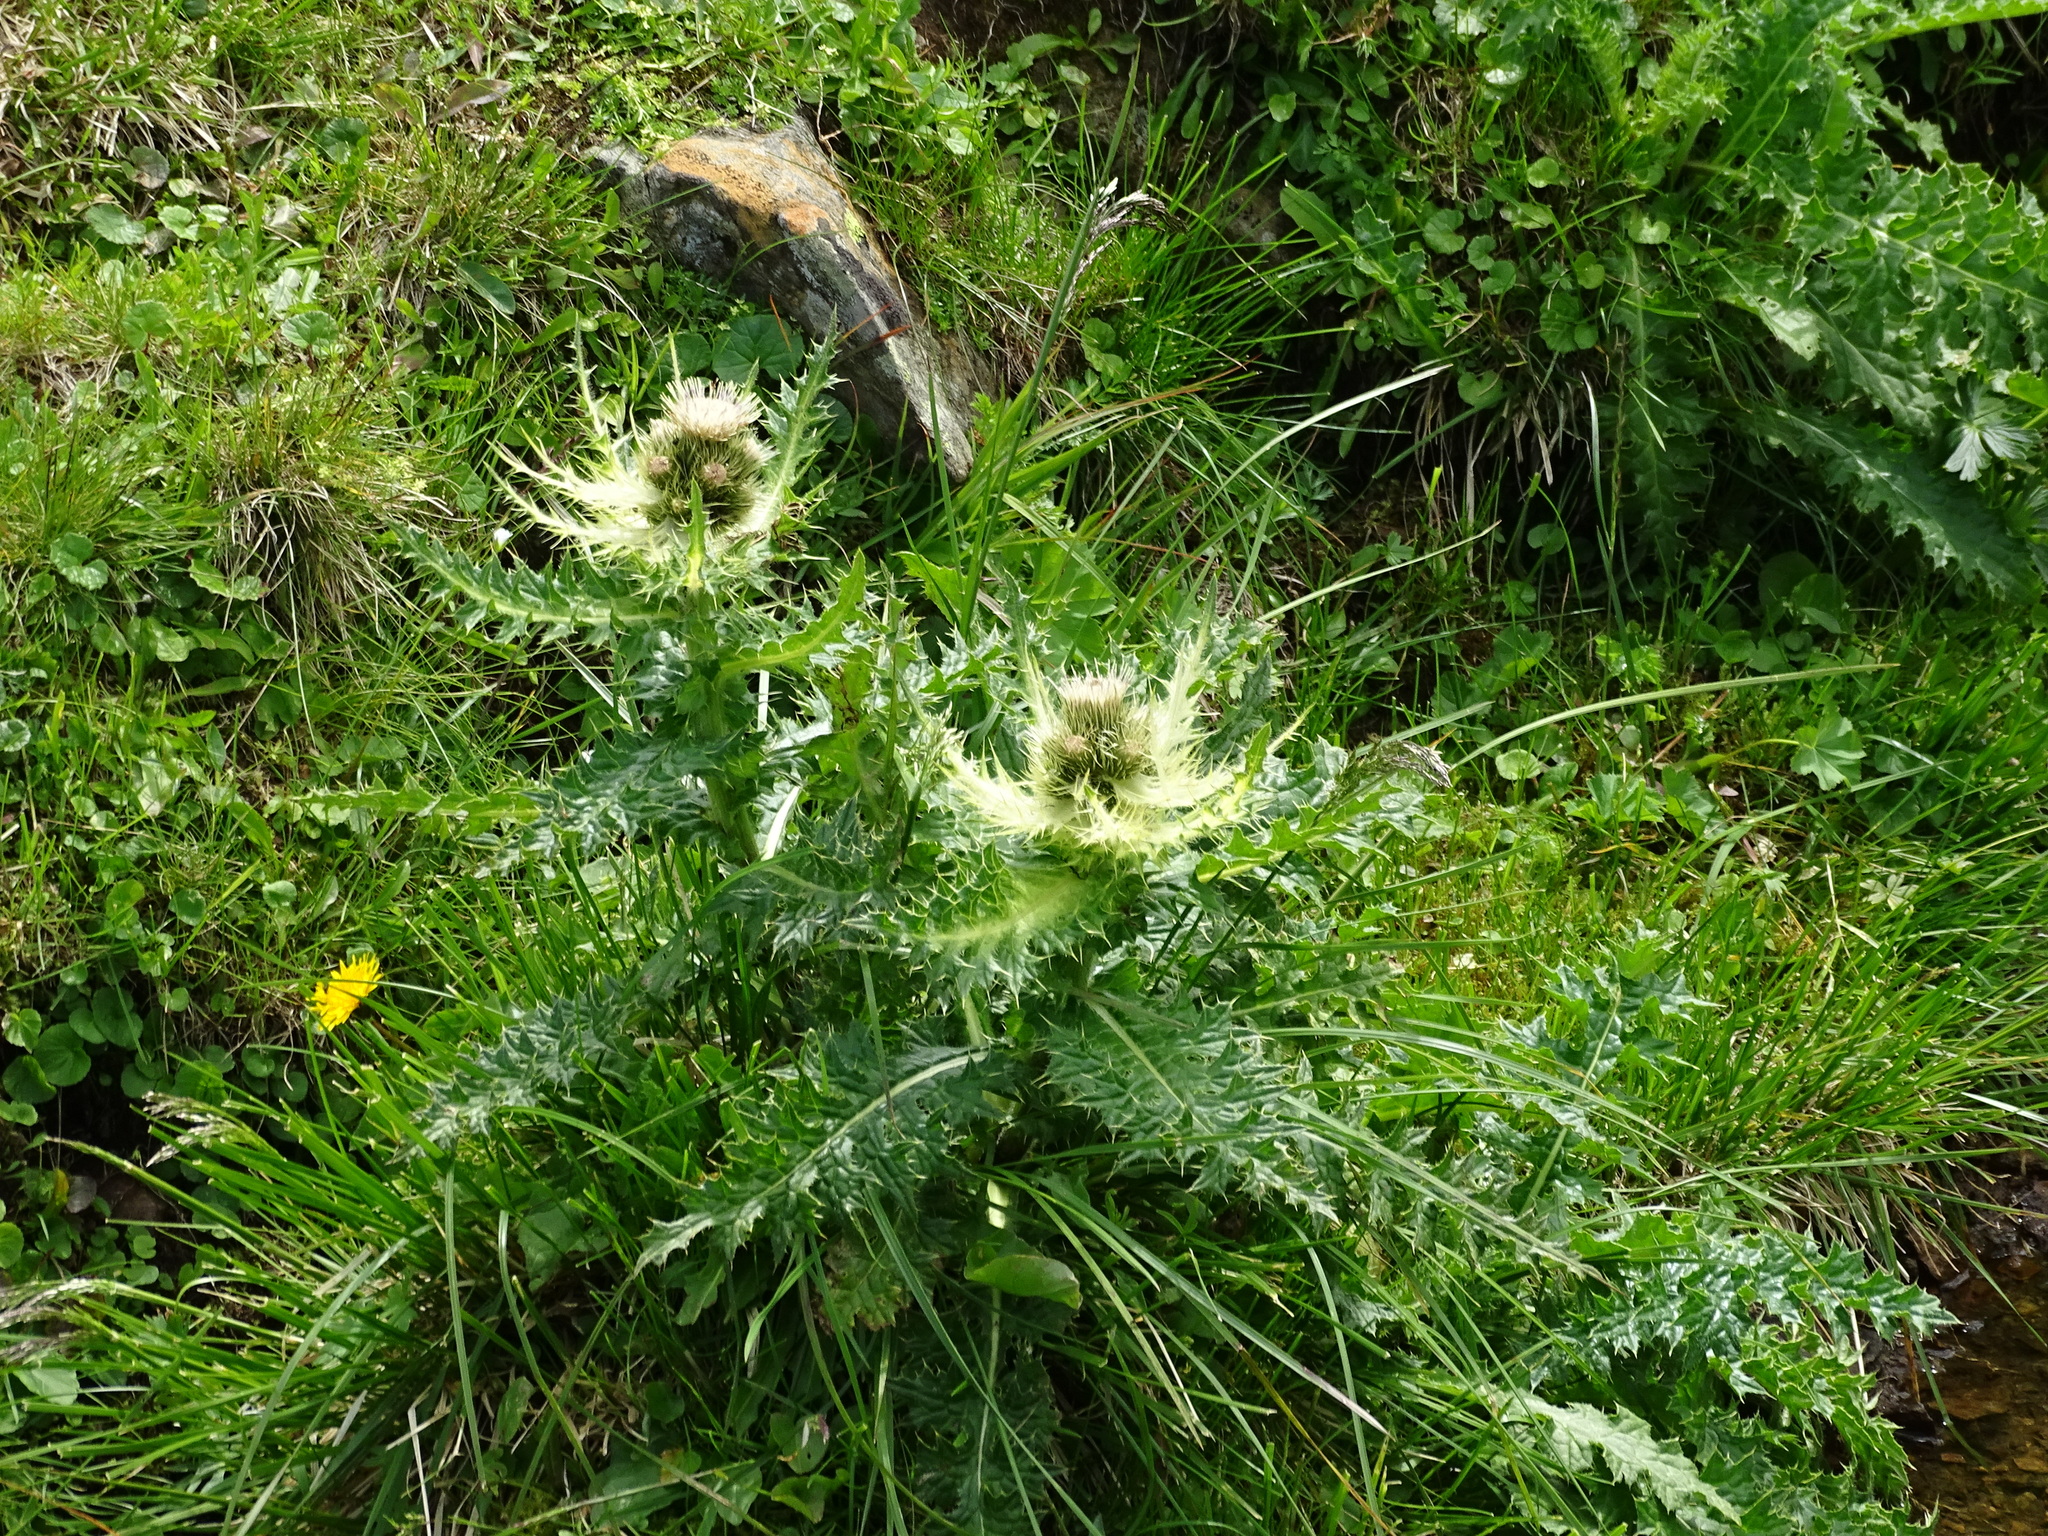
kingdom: Plantae
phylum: Tracheophyta
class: Magnoliopsida
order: Asterales
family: Asteraceae
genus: Cirsium
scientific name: Cirsium spinosissimum
